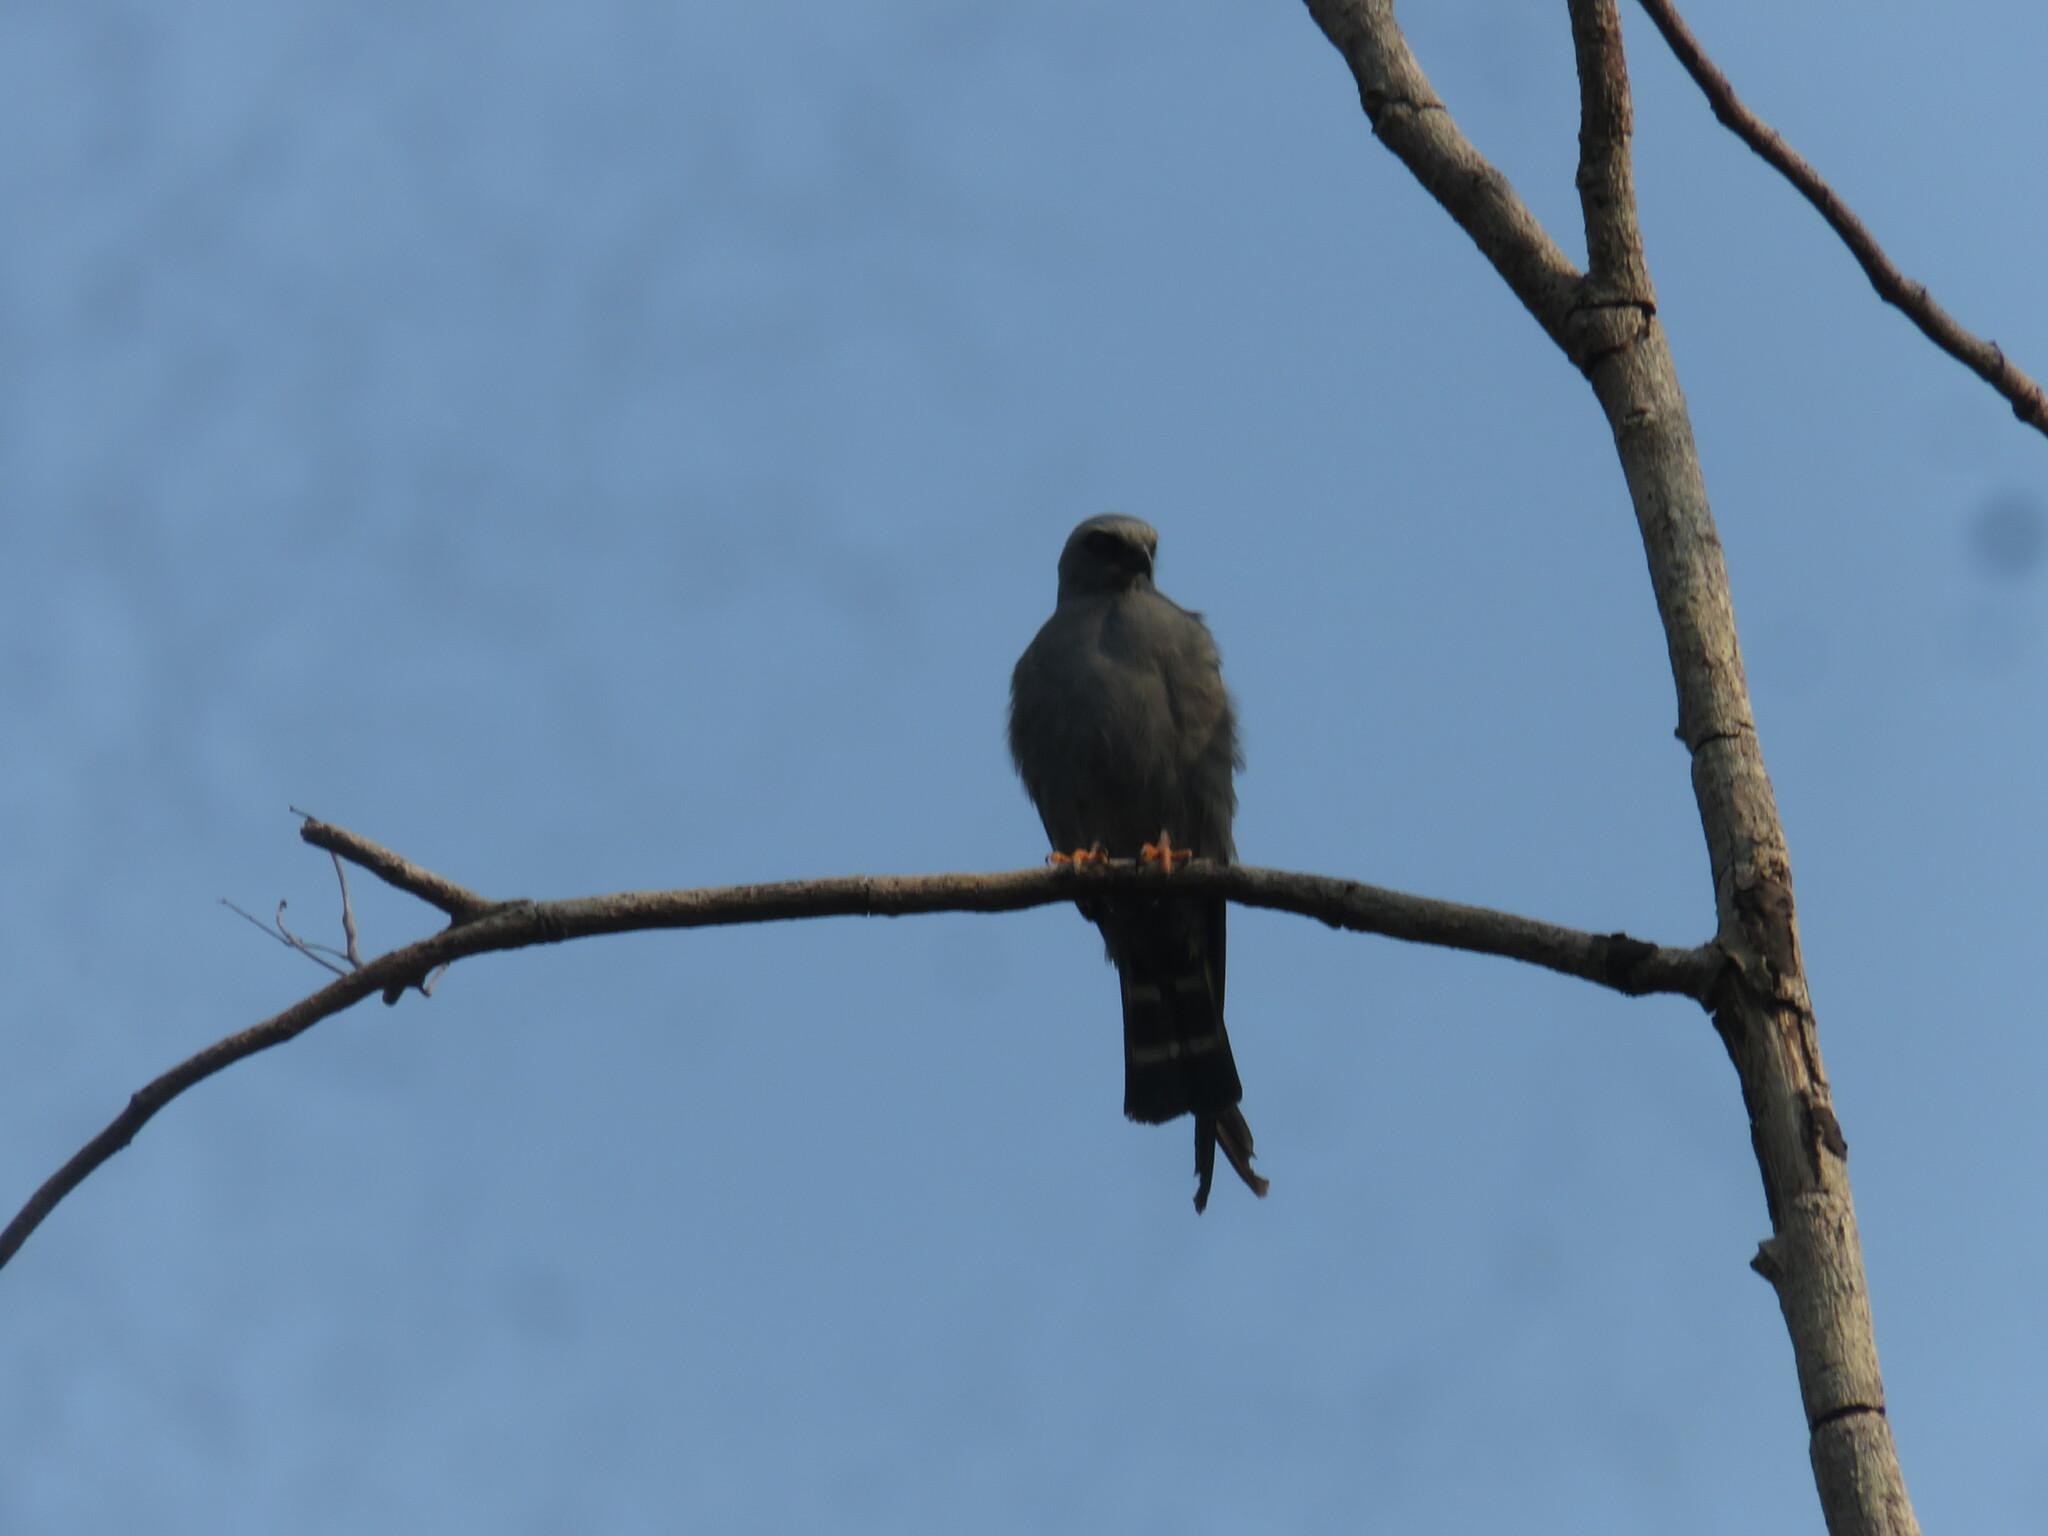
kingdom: Animalia
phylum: Chordata
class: Aves
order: Accipitriformes
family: Accipitridae
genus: Ictinia
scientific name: Ictinia plumbea
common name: Plumbeous kite
